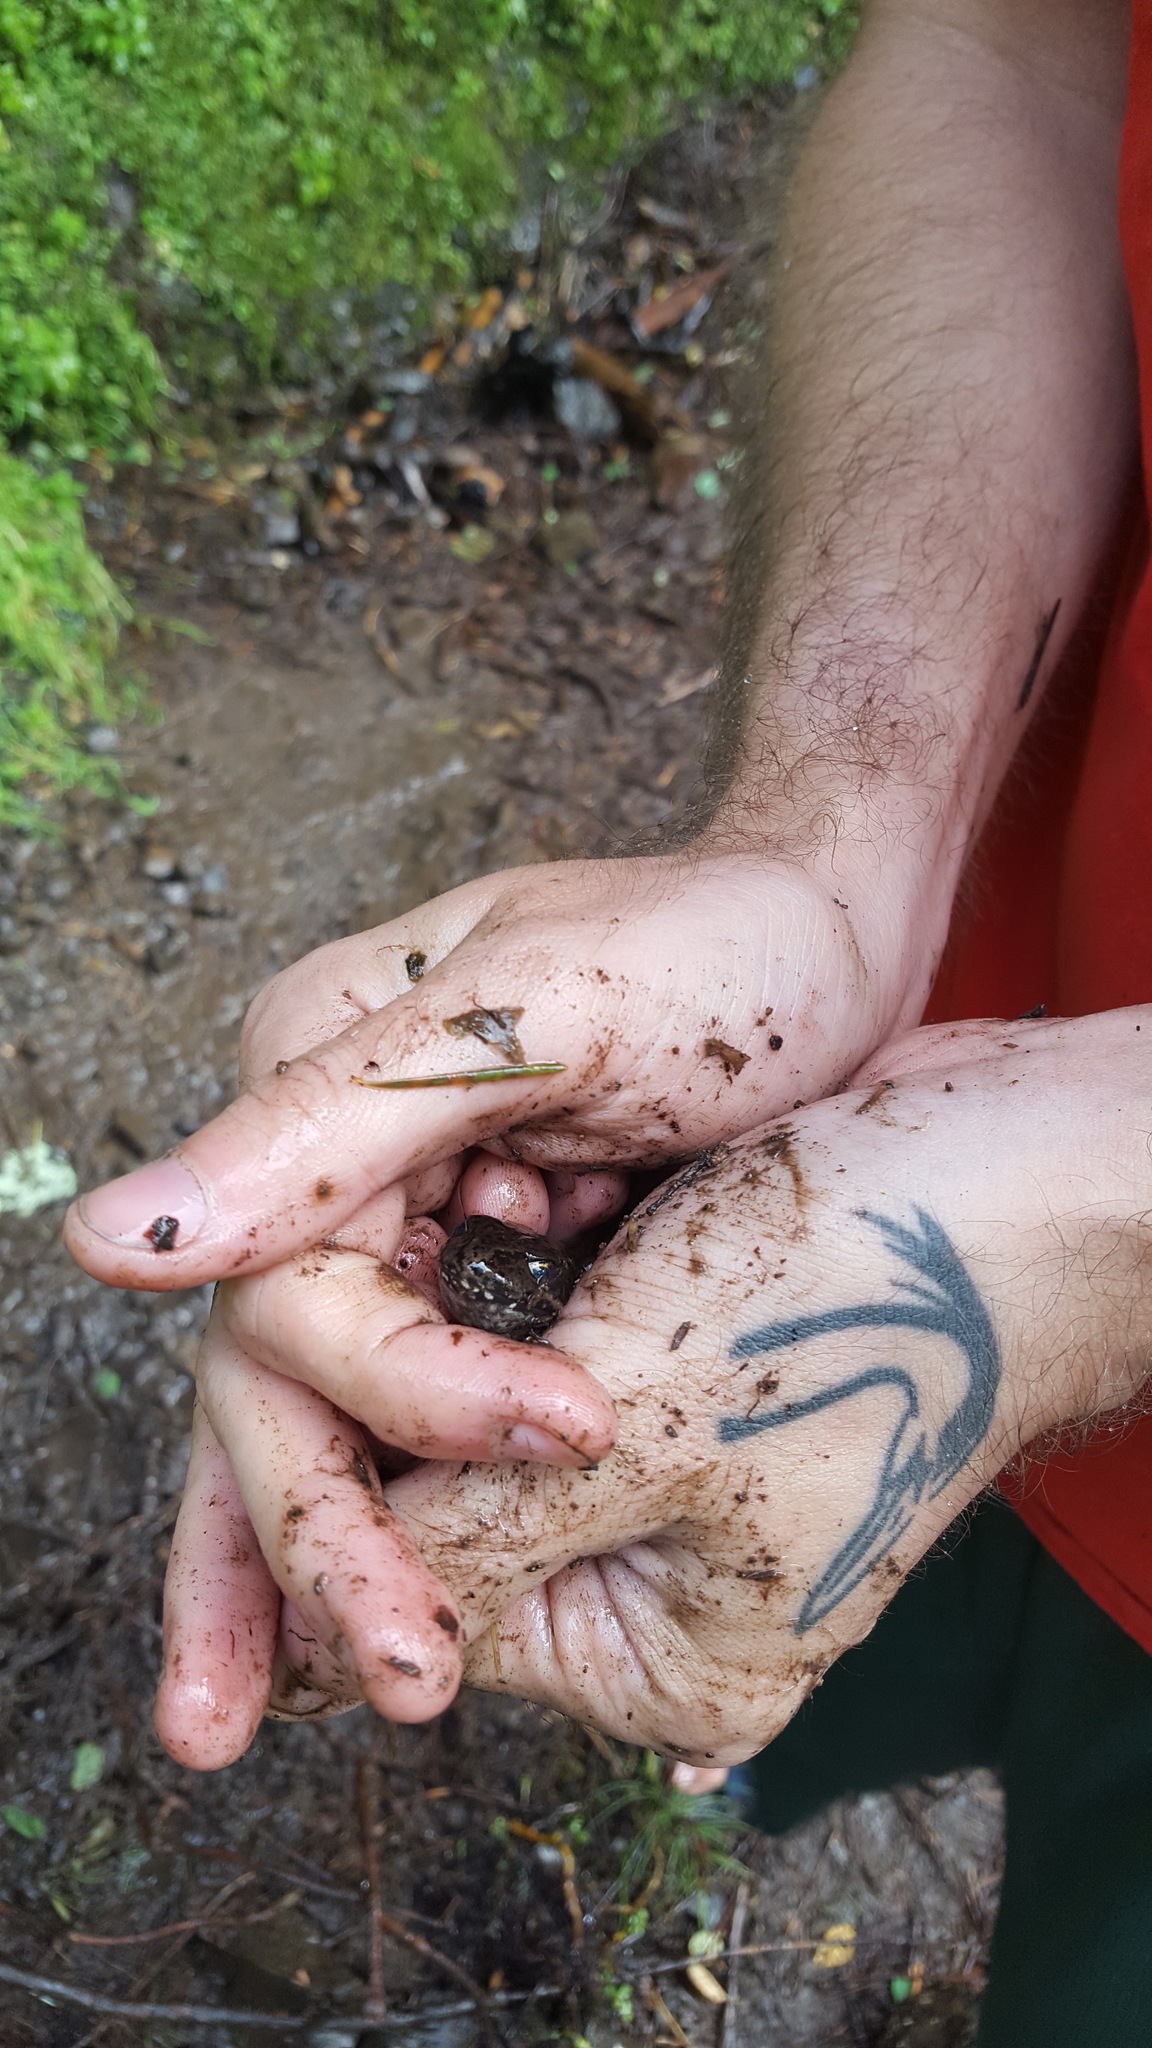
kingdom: Animalia
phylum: Chordata
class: Amphibia
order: Anura
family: Ranidae
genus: Rana
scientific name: Rana aurora
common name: Red-legged frog
